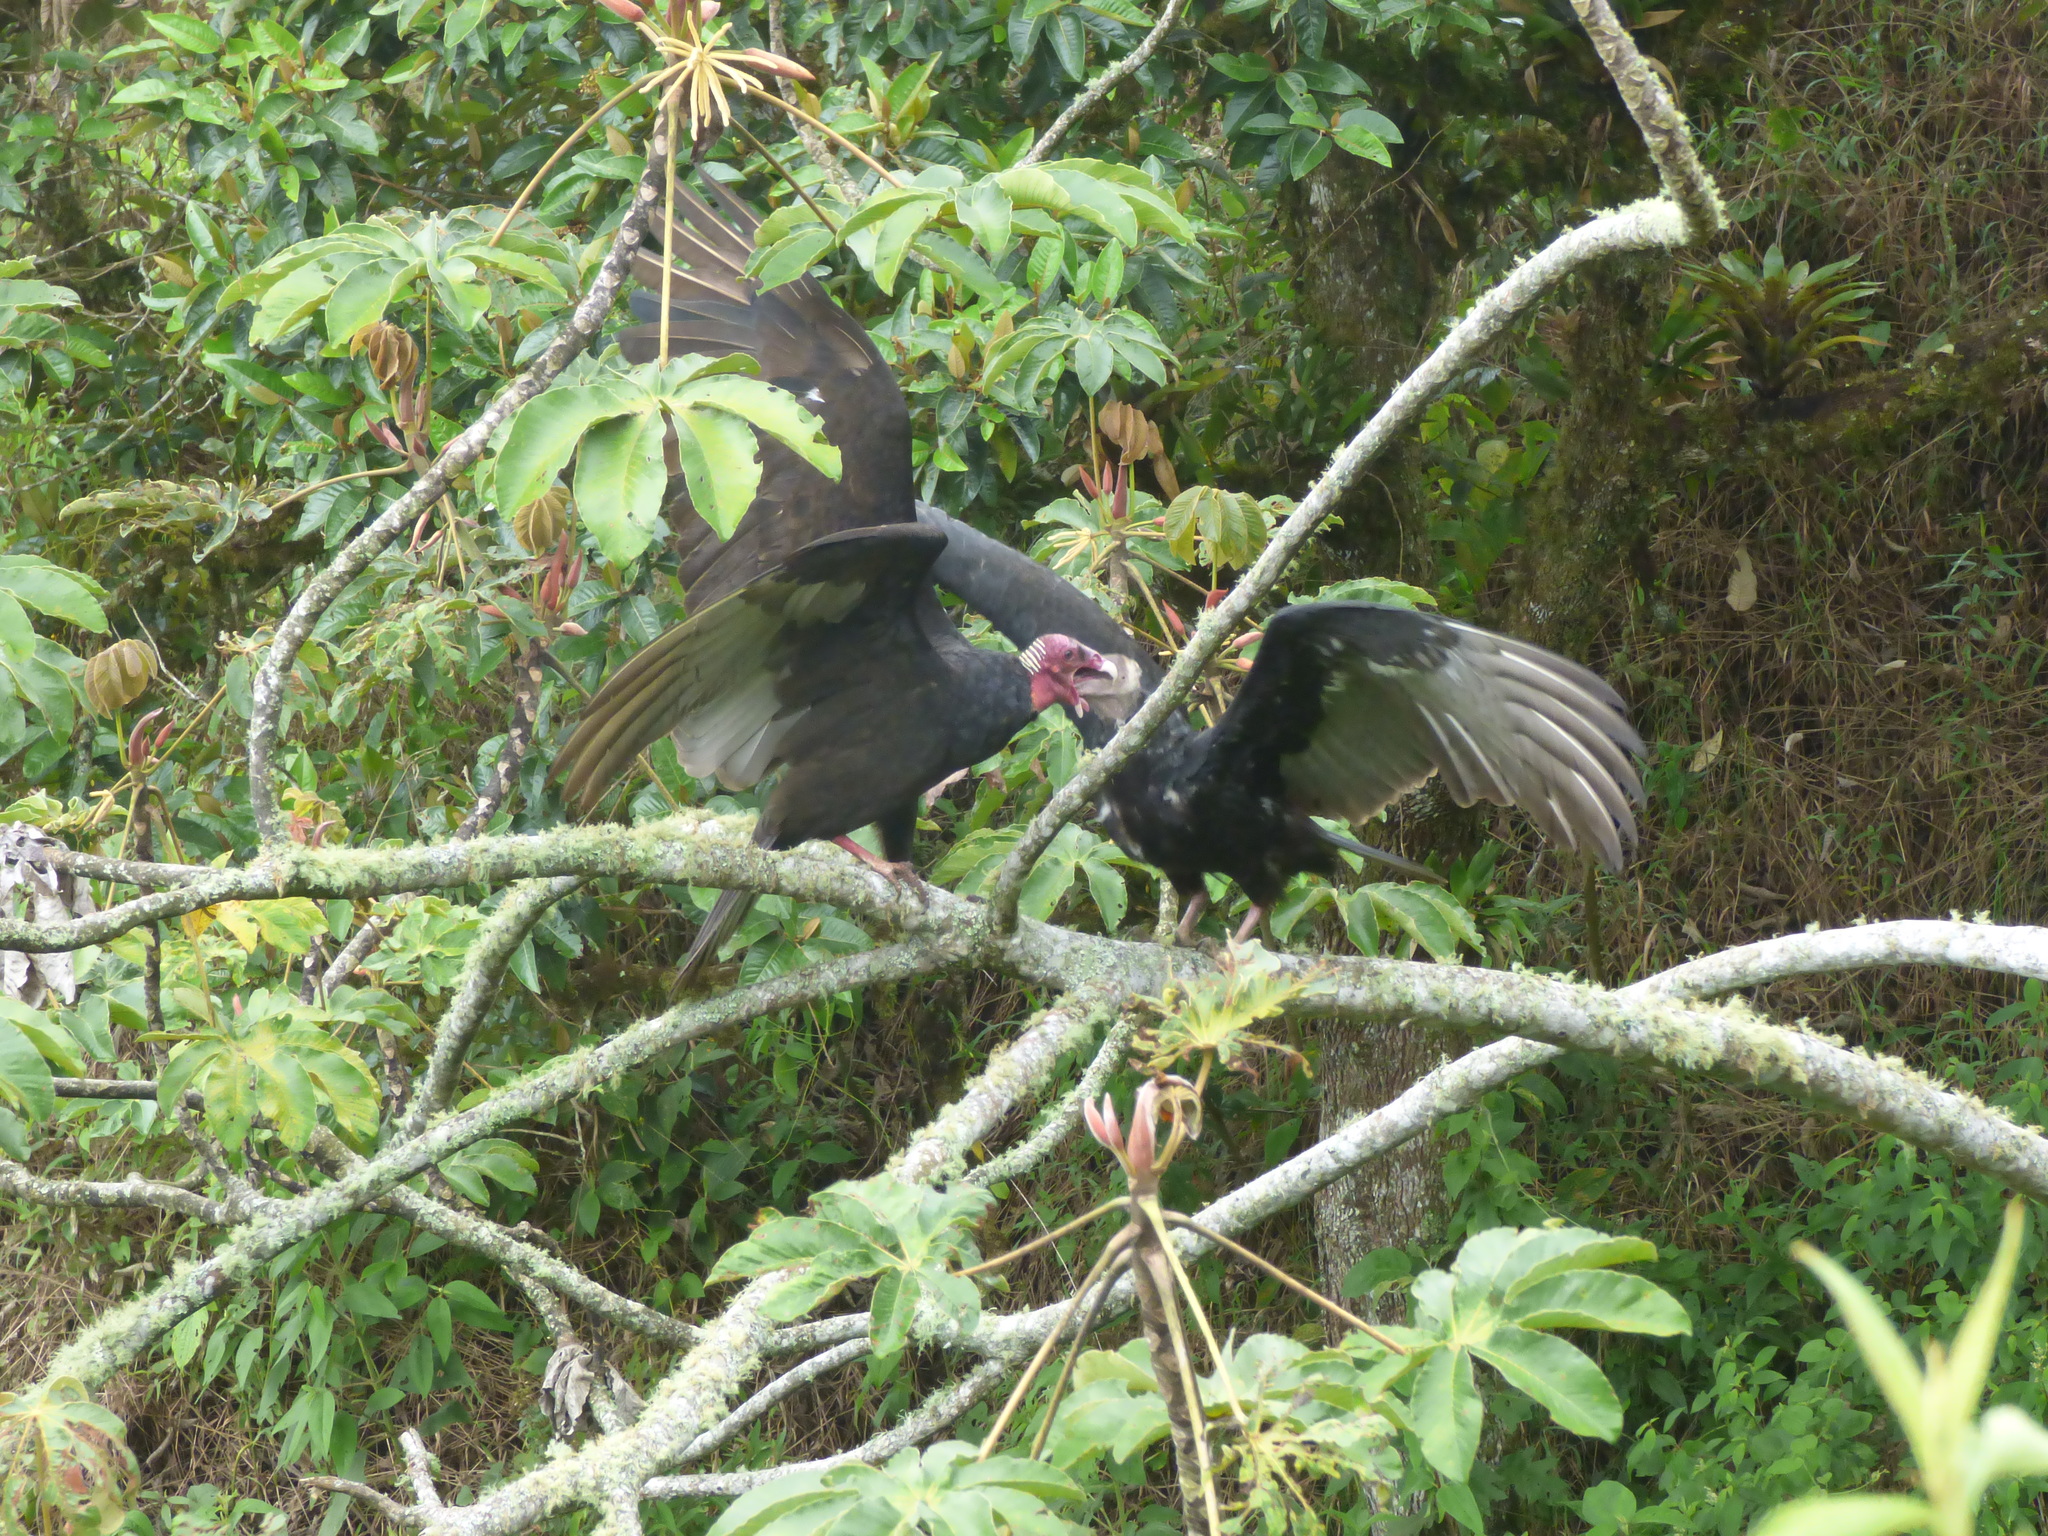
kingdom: Animalia
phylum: Chordata
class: Aves
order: Accipitriformes
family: Cathartidae
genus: Cathartes
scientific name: Cathartes aura
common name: Turkey vulture
